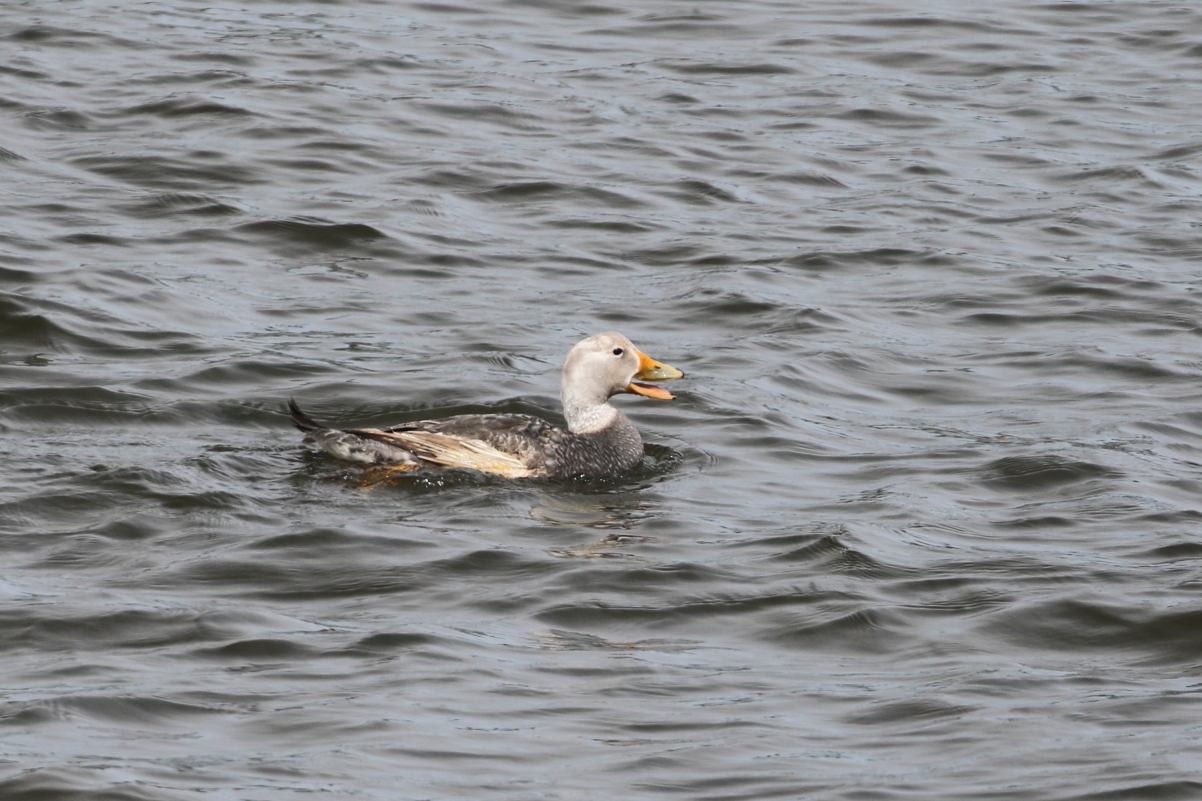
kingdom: Animalia
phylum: Chordata
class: Aves
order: Anseriformes
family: Anatidae
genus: Tachyeres
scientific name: Tachyeres patachonicus
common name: Flying steamer duck
